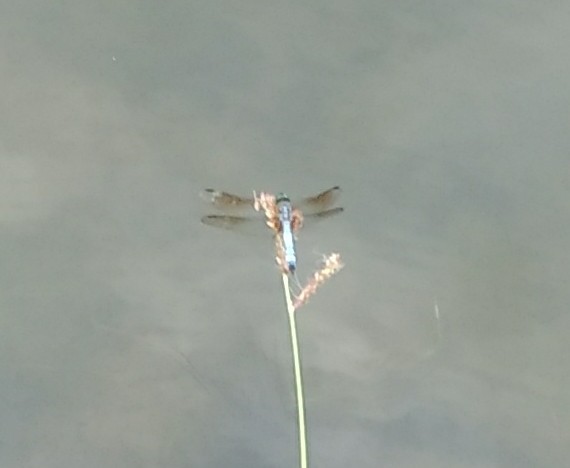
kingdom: Animalia
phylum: Arthropoda
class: Insecta
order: Odonata
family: Libellulidae
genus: Pachydiplax
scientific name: Pachydiplax longipennis
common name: Blue dasher
